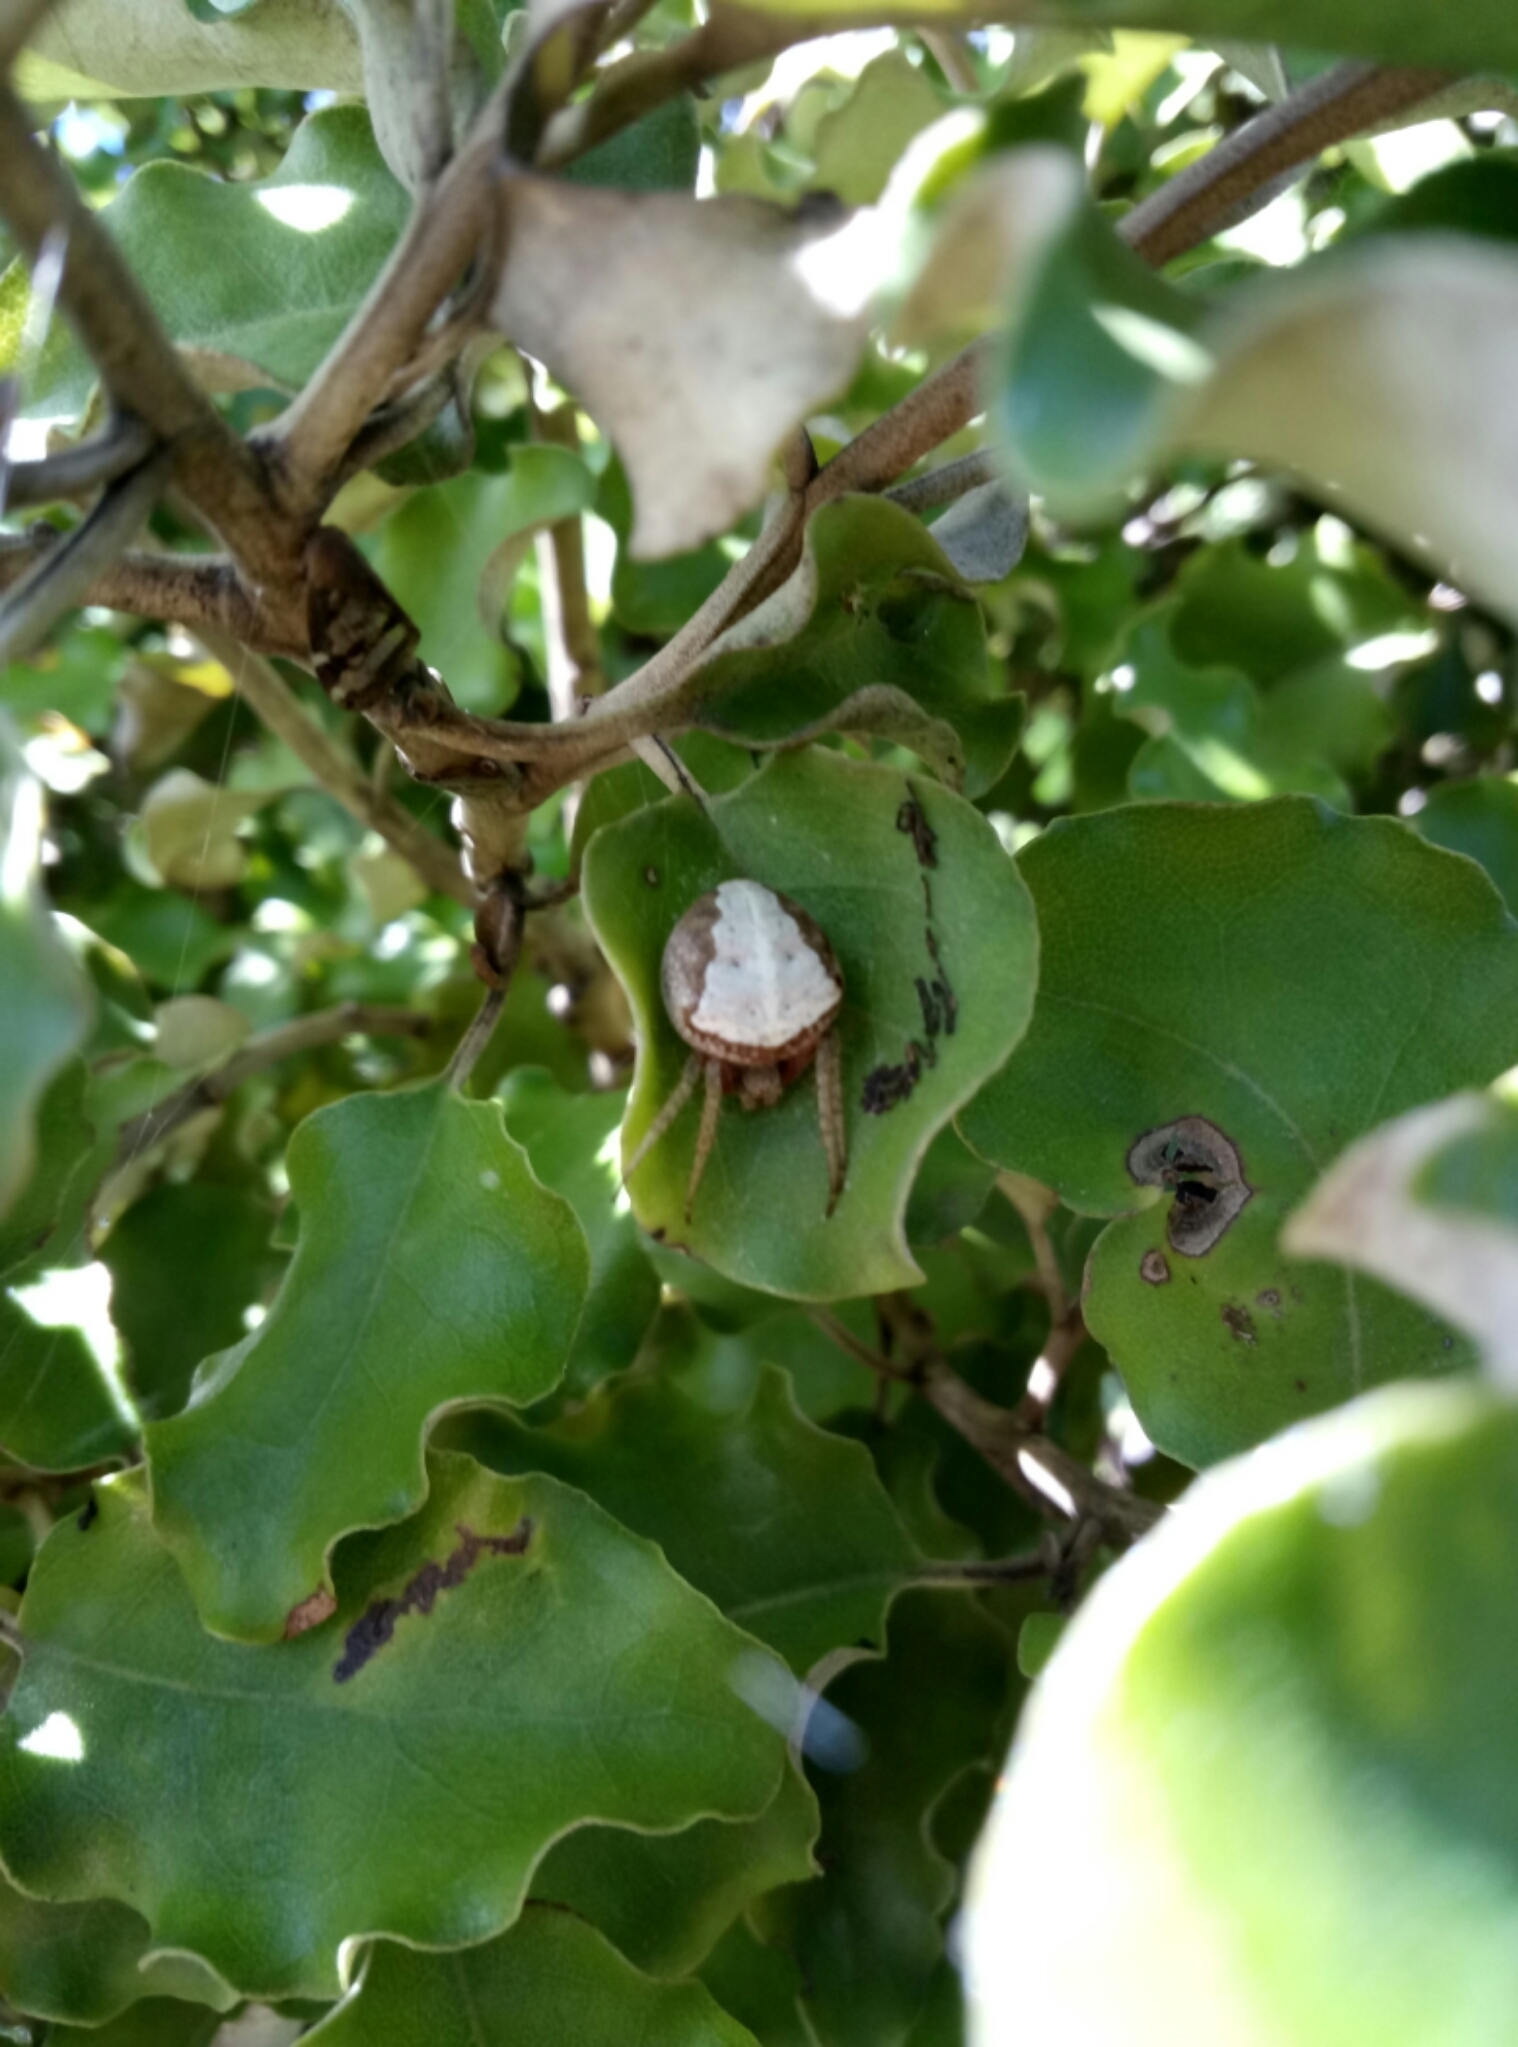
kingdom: Animalia
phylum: Arthropoda
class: Arachnida
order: Araneae
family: Araneidae
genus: Zealaranea
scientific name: Zealaranea crassa
